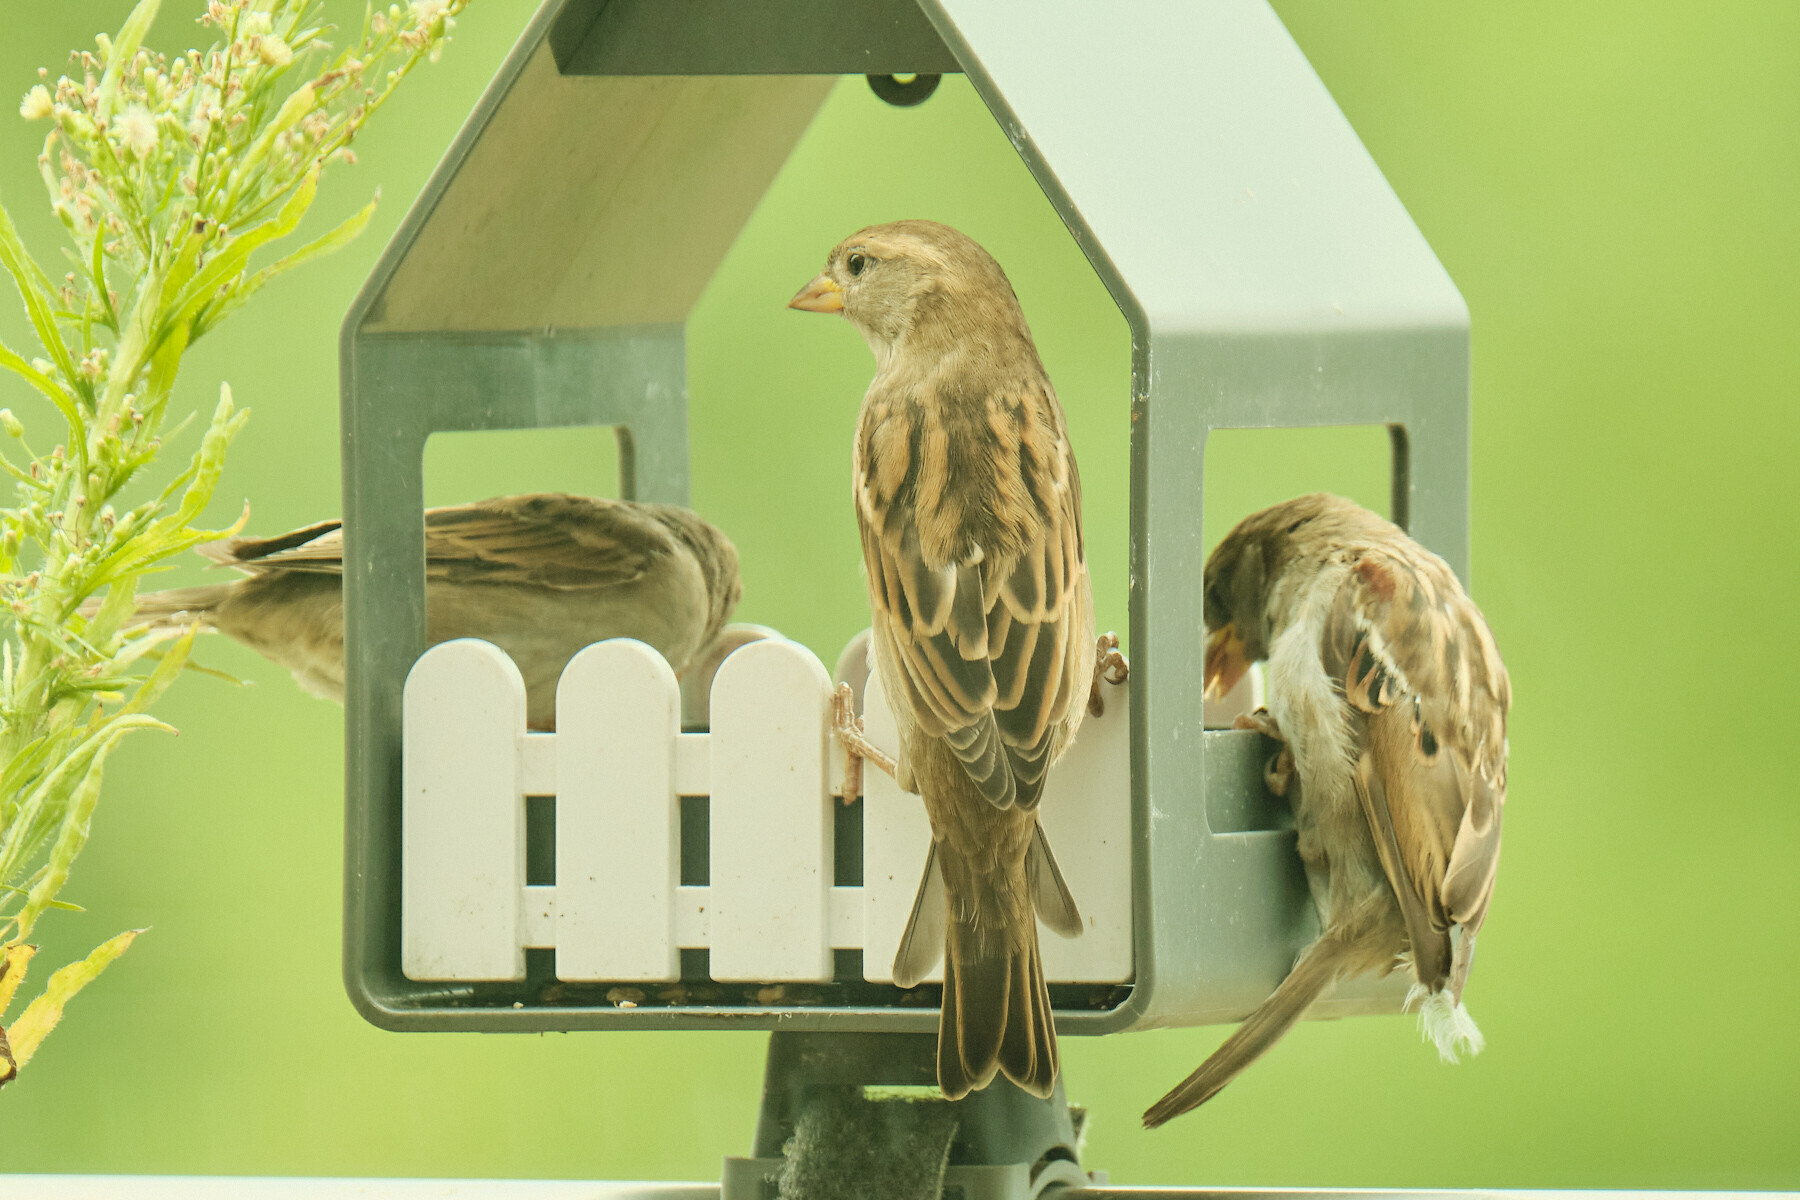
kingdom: Animalia
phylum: Chordata
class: Aves
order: Passeriformes
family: Passeridae
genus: Passer
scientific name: Passer domesticus
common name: House sparrow
